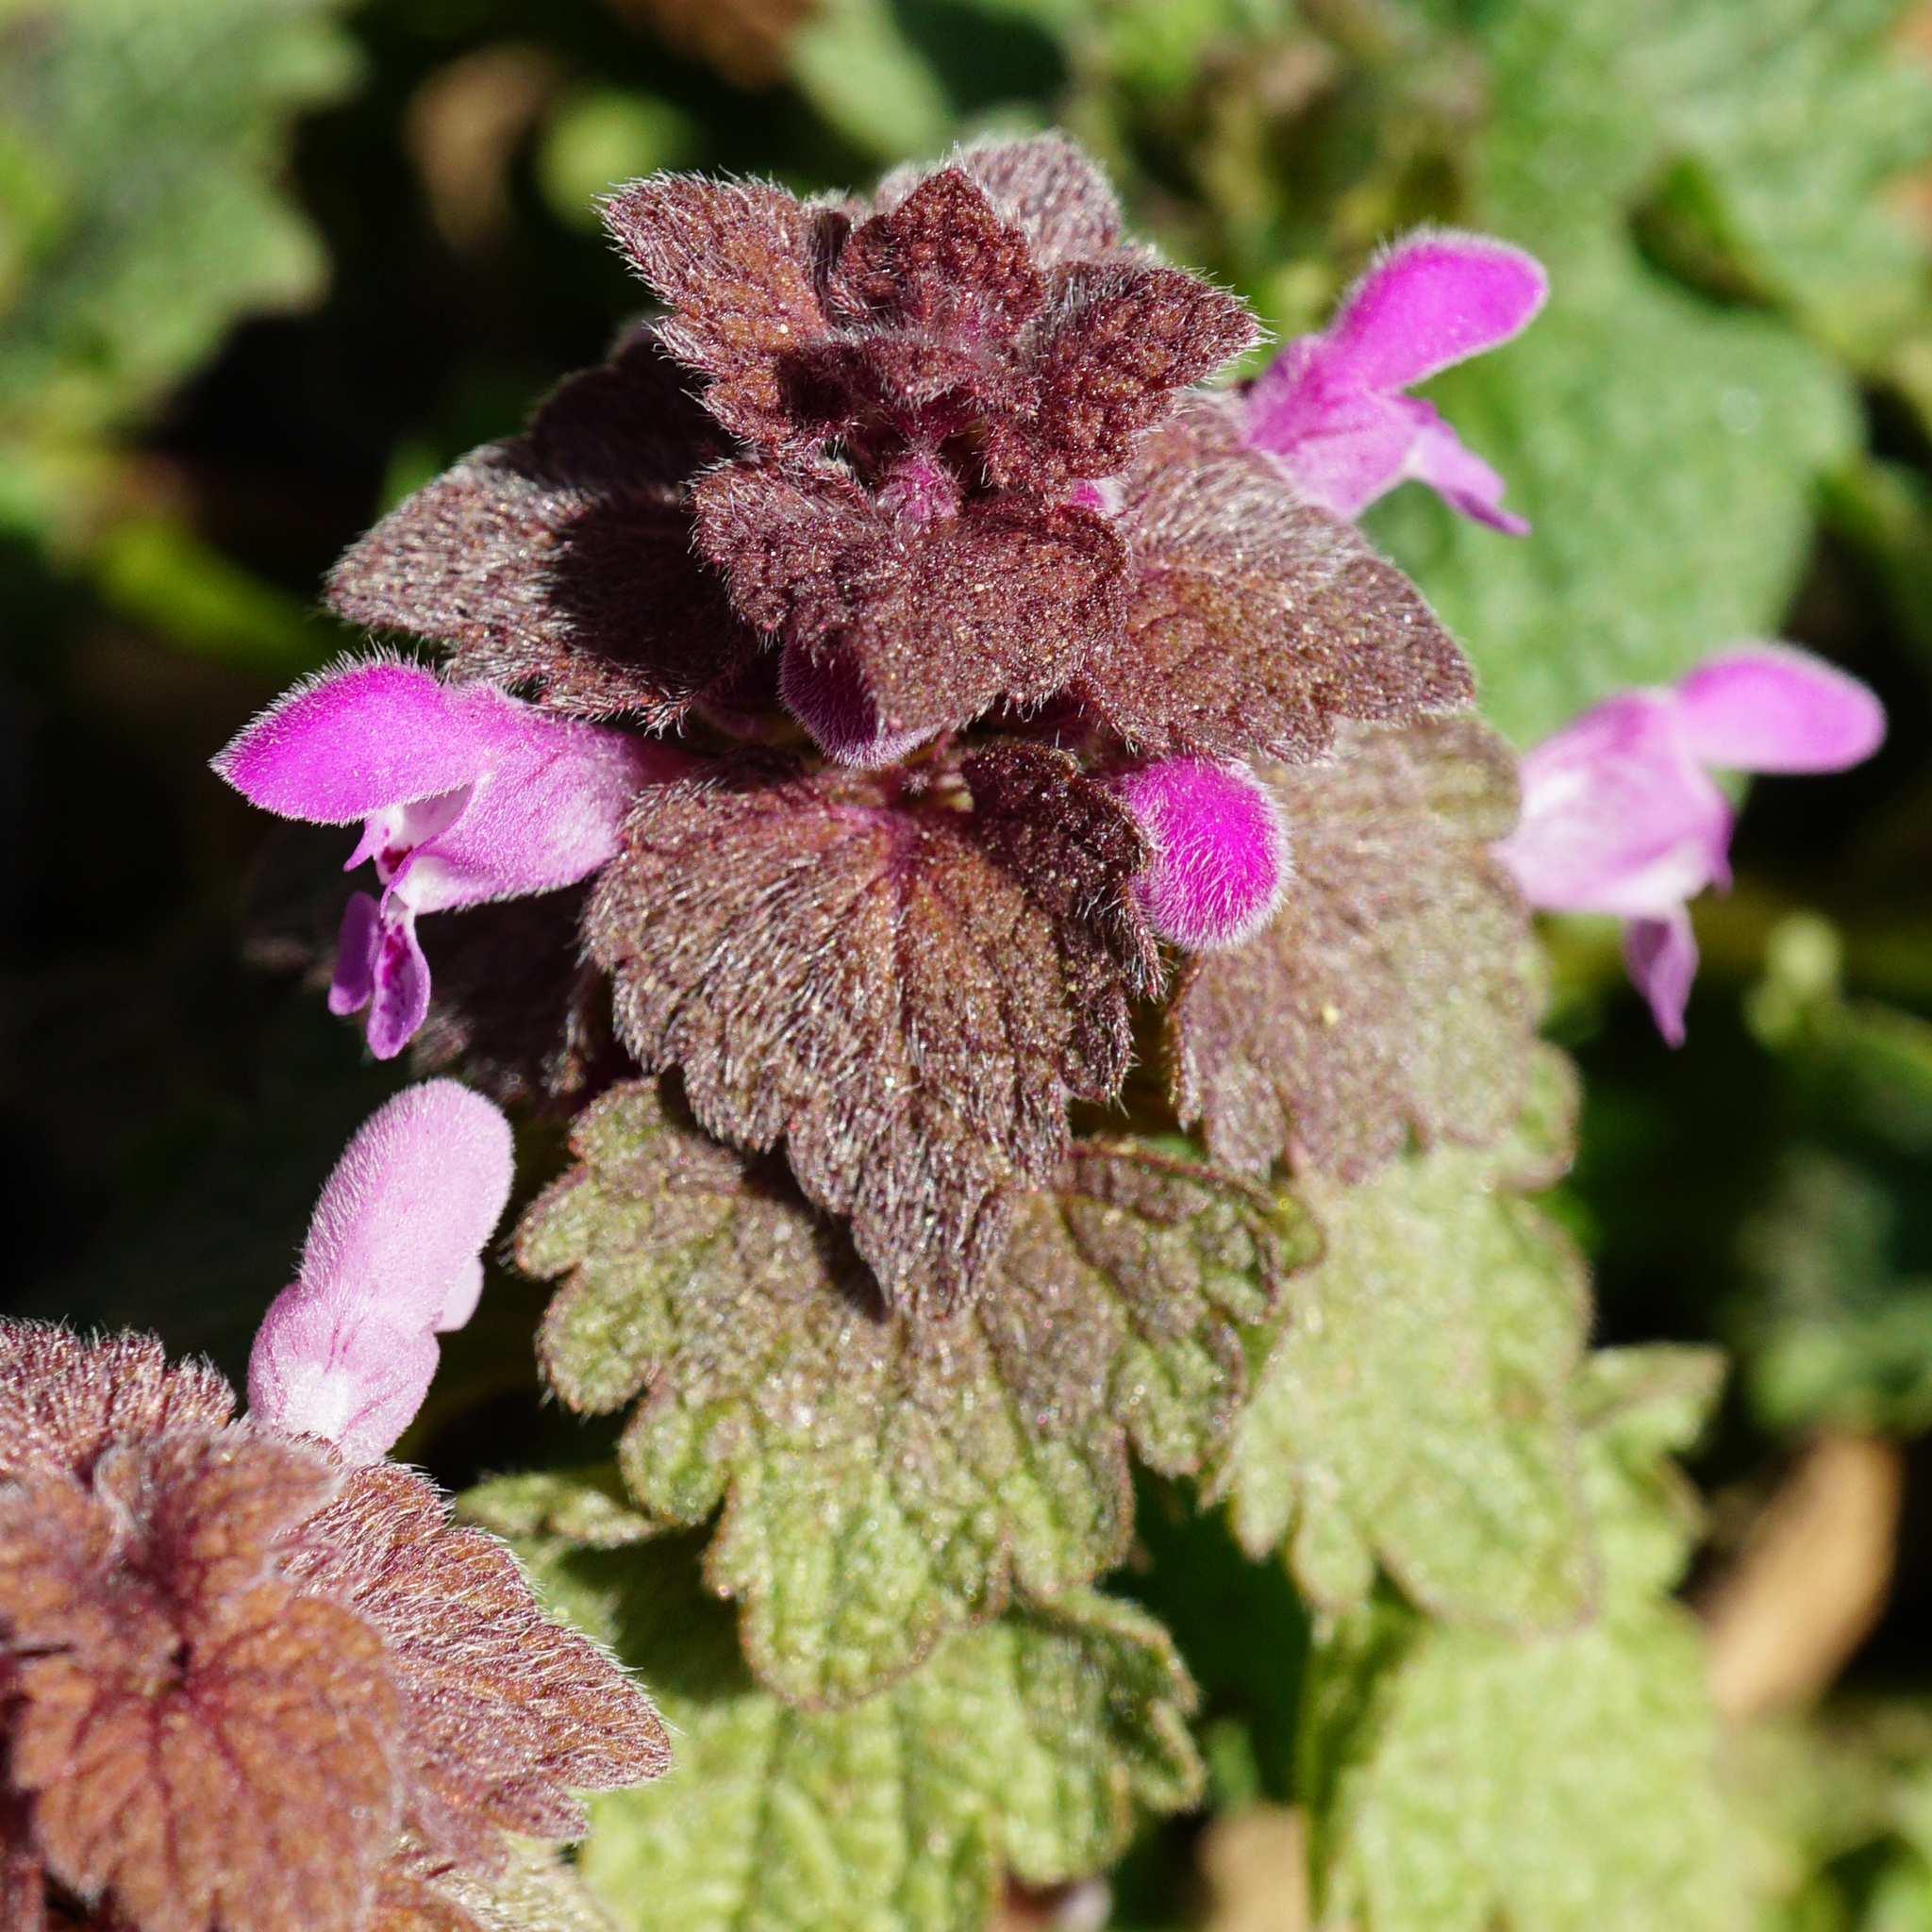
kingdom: Plantae
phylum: Tracheophyta
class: Magnoliopsida
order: Lamiales
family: Lamiaceae
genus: Lamium
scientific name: Lamium purpureum
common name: Red dead-nettle
